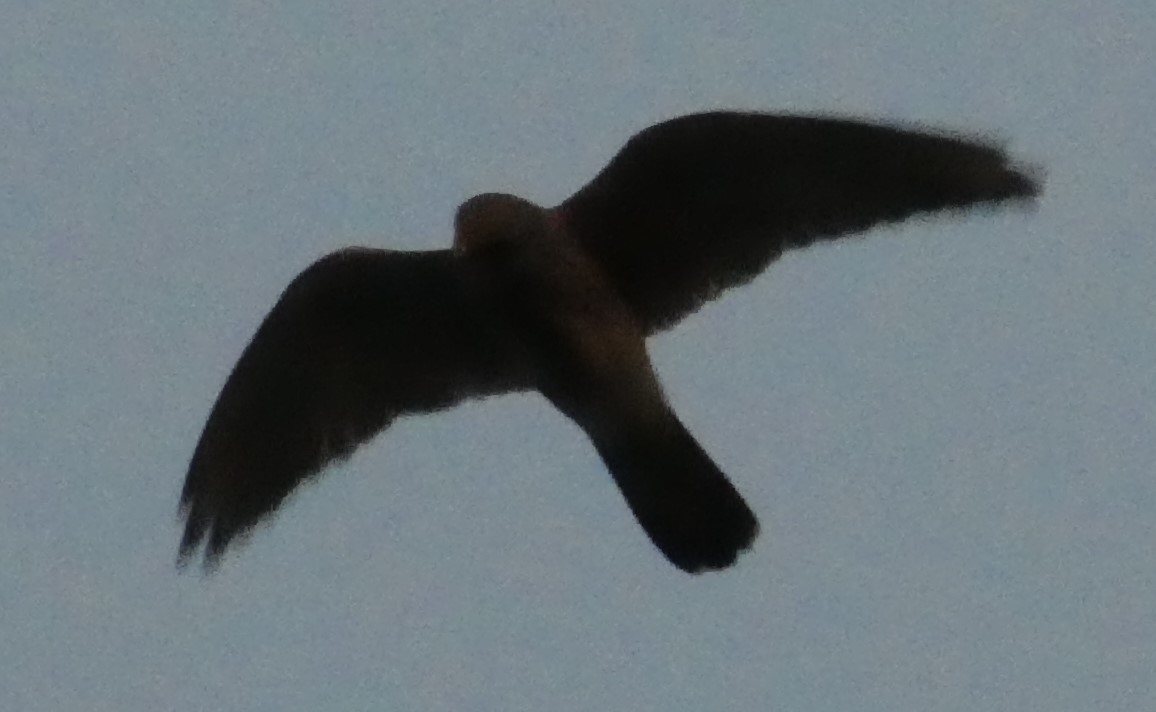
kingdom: Animalia
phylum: Chordata
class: Aves
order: Falconiformes
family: Falconidae
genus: Falco
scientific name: Falco tinnunculus
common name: Common kestrel
